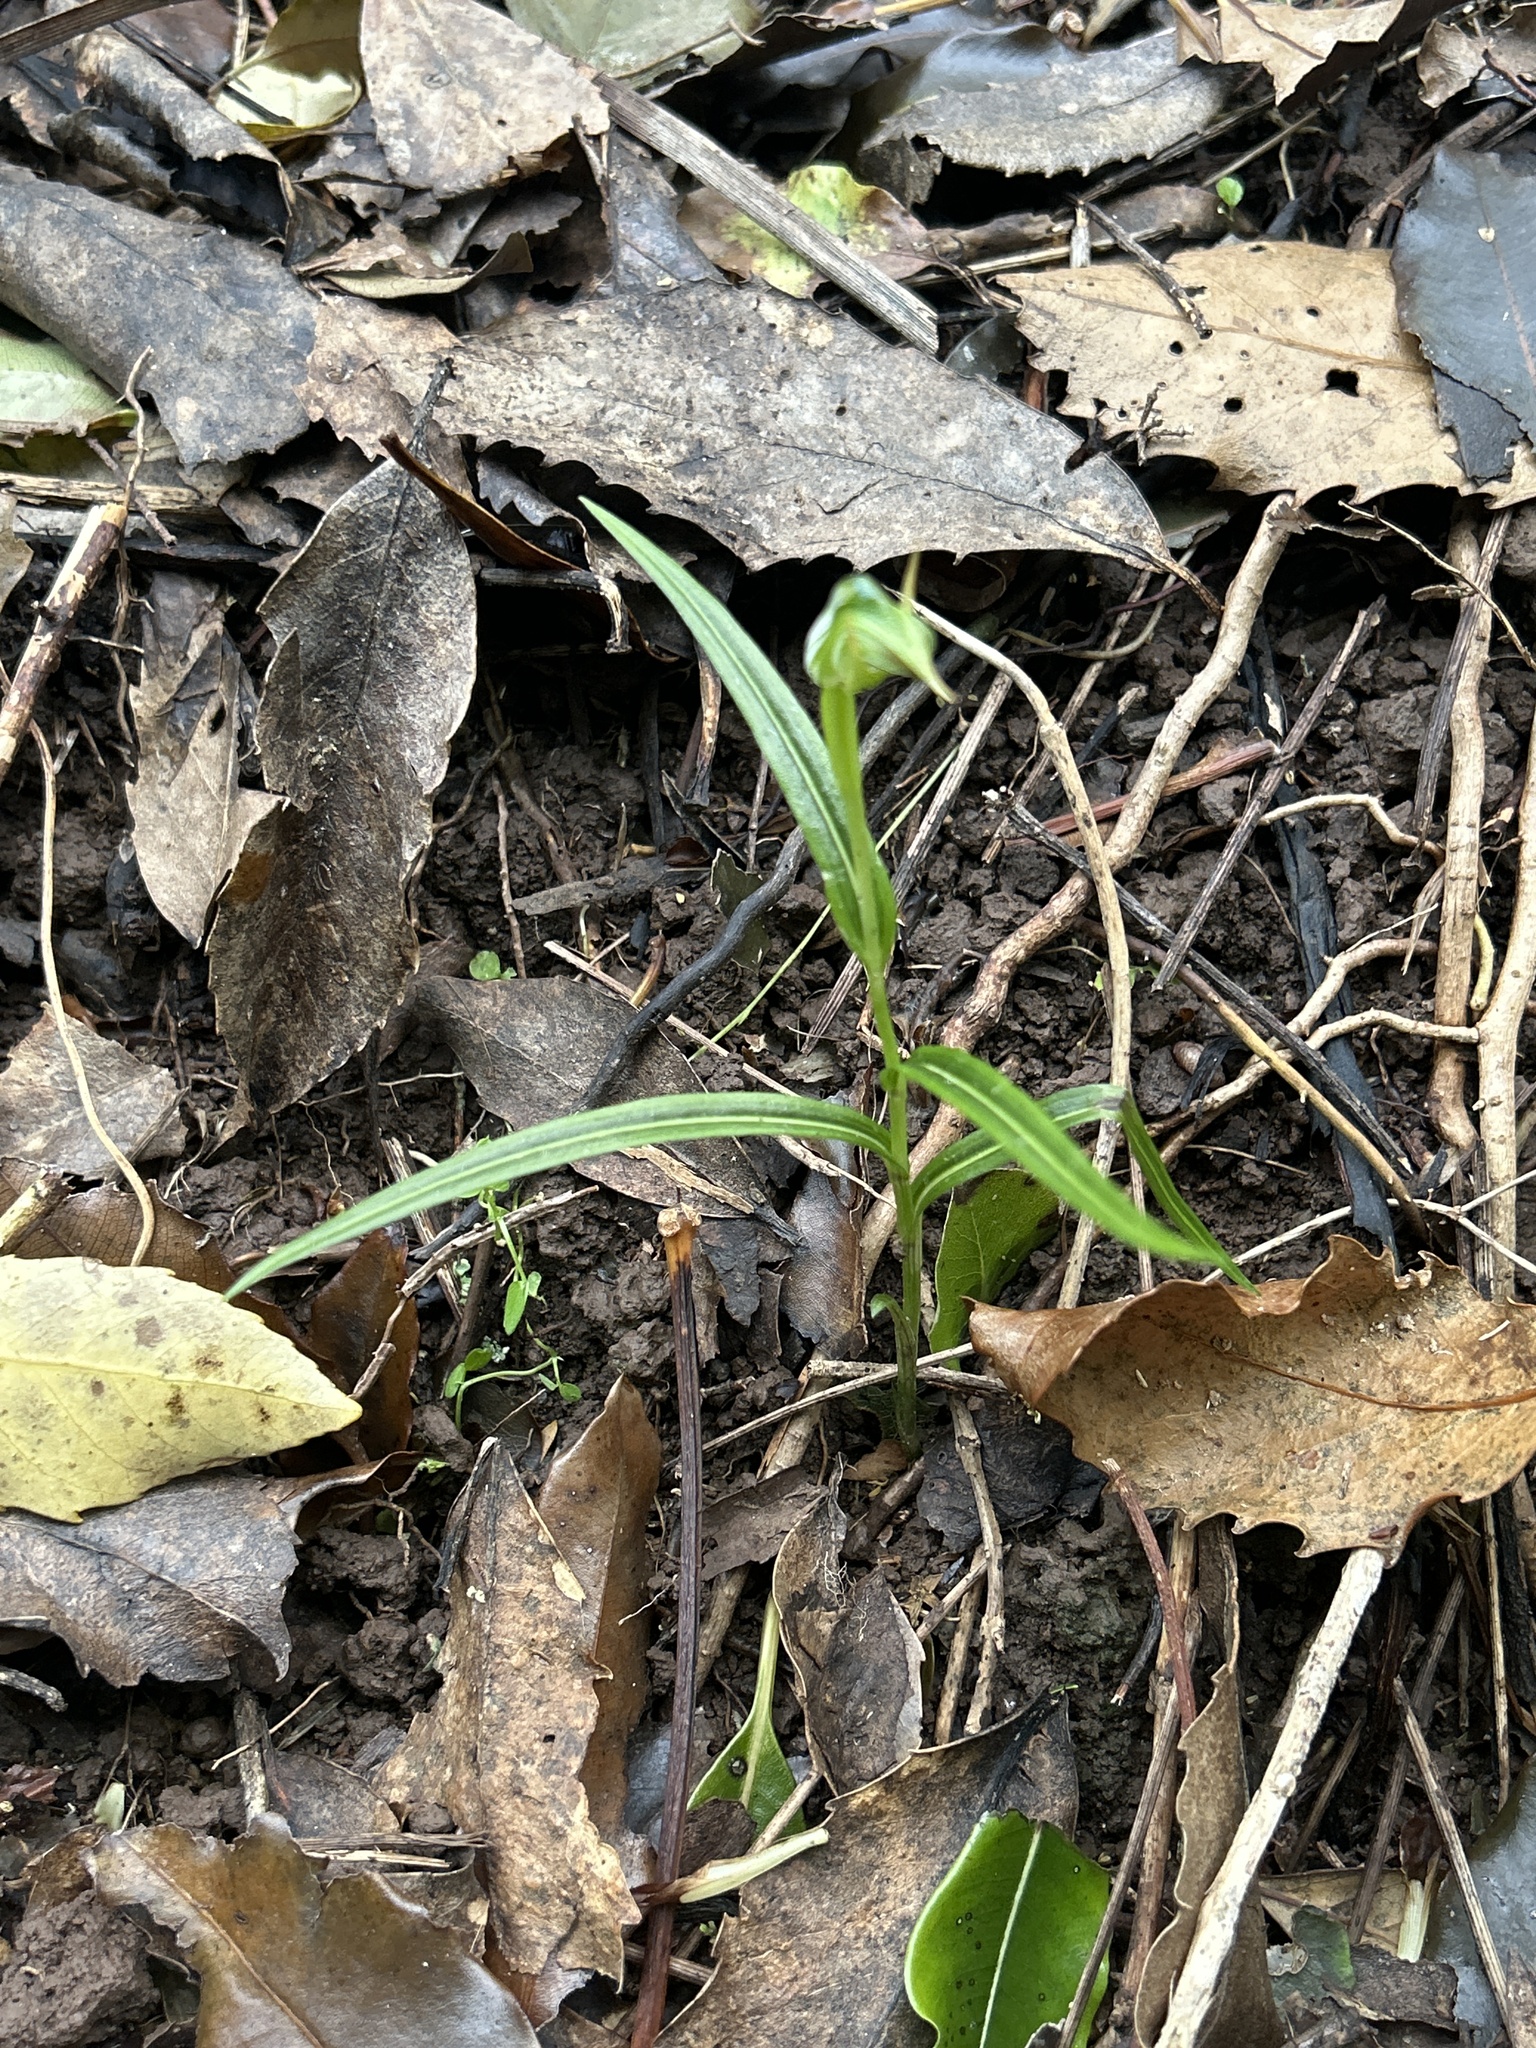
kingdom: Plantae
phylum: Tracheophyta
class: Liliopsida
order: Asparagales
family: Orchidaceae
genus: Pterostylis
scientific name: Pterostylis graminea
